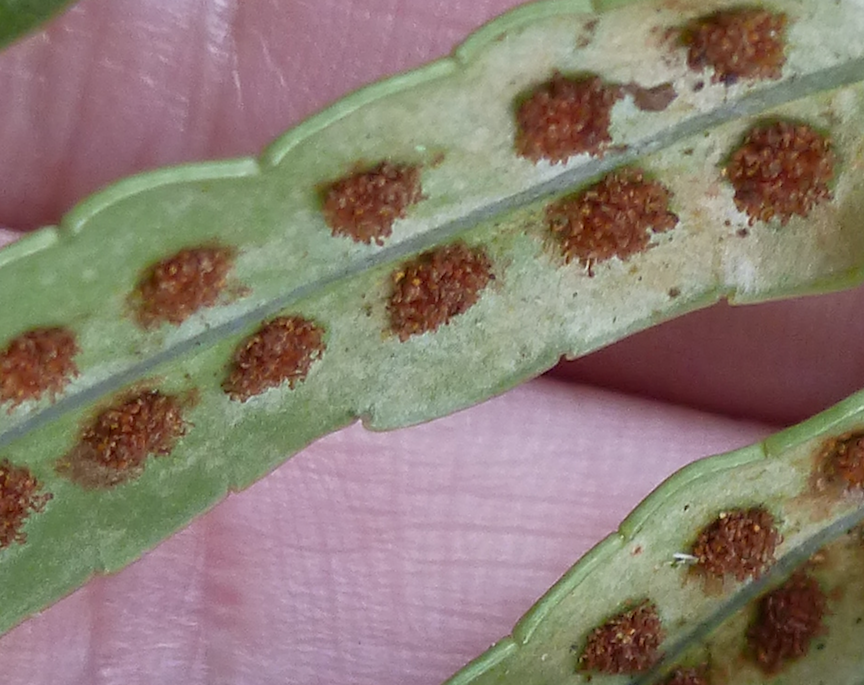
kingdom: Plantae
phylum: Tracheophyta
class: Polypodiopsida
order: Polypodiales
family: Polypodiaceae
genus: Polypodium
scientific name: Polypodium scouleri
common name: Scouler's polypody
